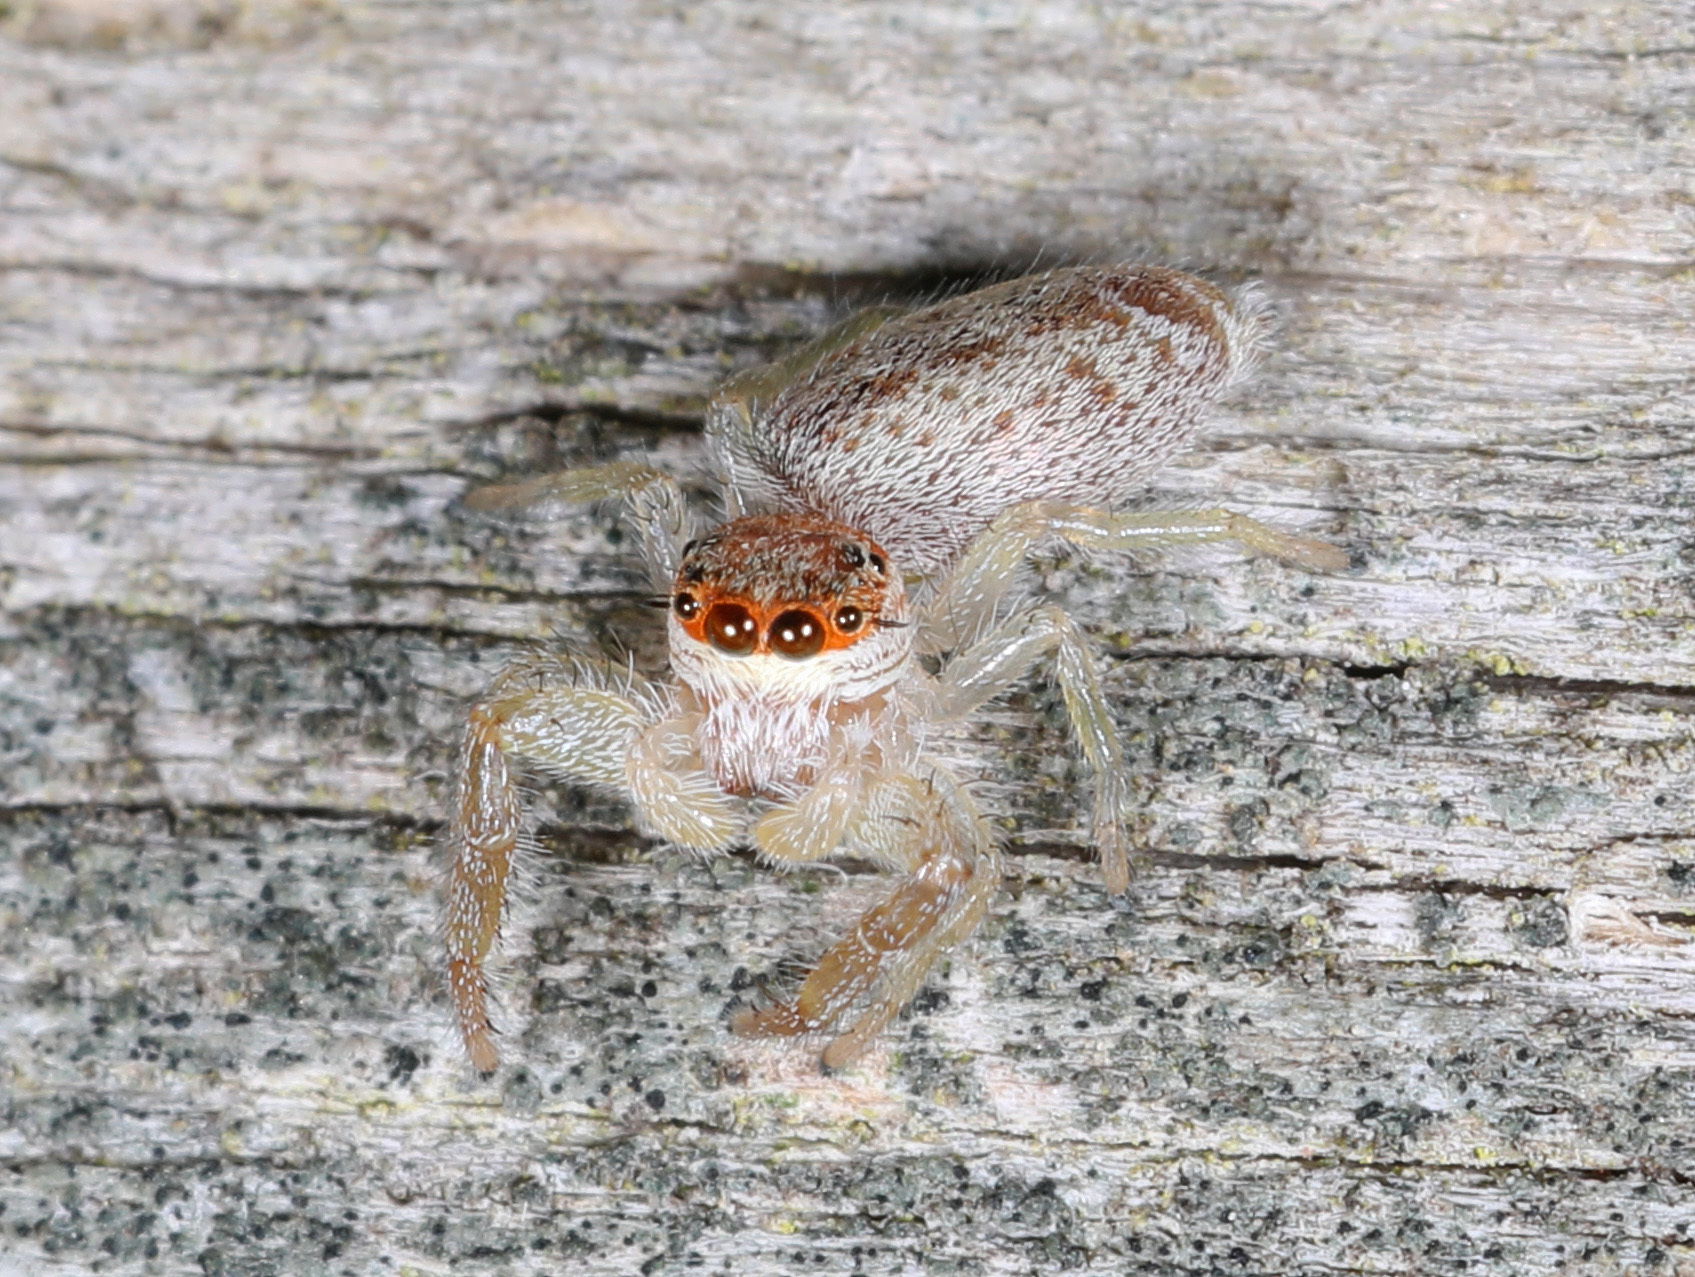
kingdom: Animalia
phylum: Arthropoda
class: Arachnida
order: Araneae
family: Salticidae
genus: Hentzia
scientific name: Hentzia mitrata
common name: White-jawed jumping spider
